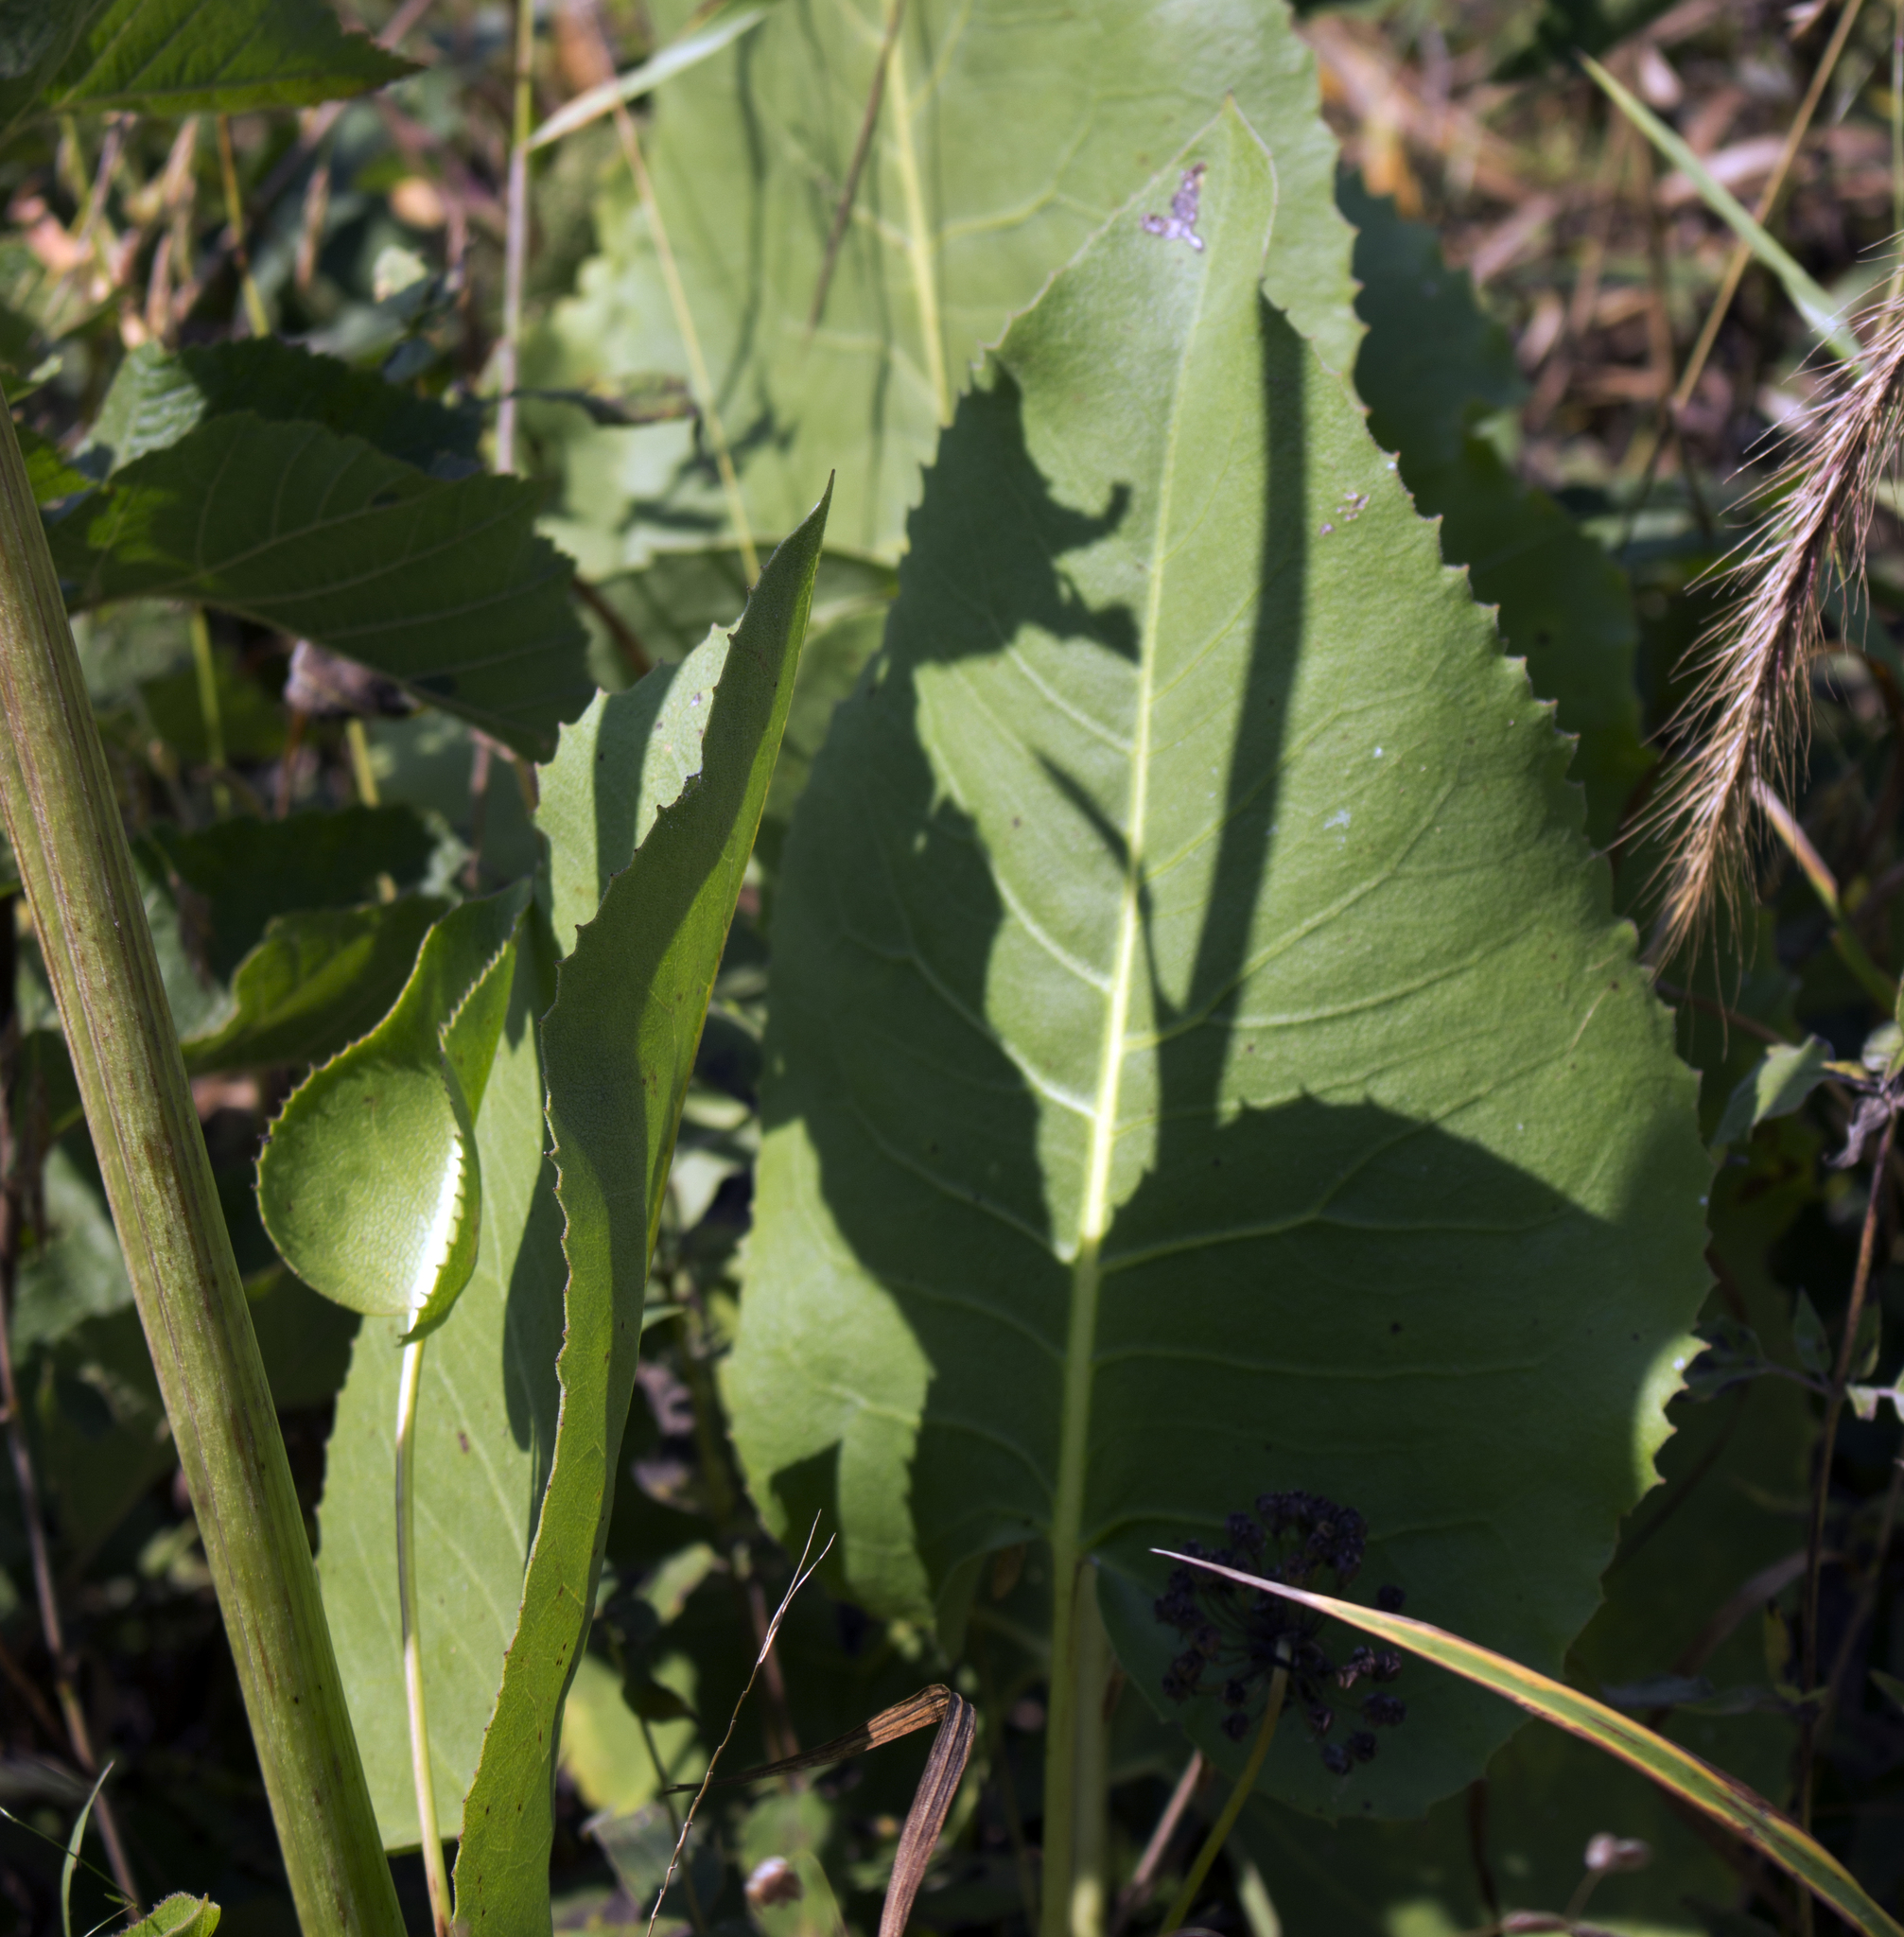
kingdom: Plantae
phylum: Tracheophyta
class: Magnoliopsida
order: Asterales
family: Asteraceae
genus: Silphium
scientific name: Silphium terebinthinaceum
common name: Basal-leaf rosinweed
